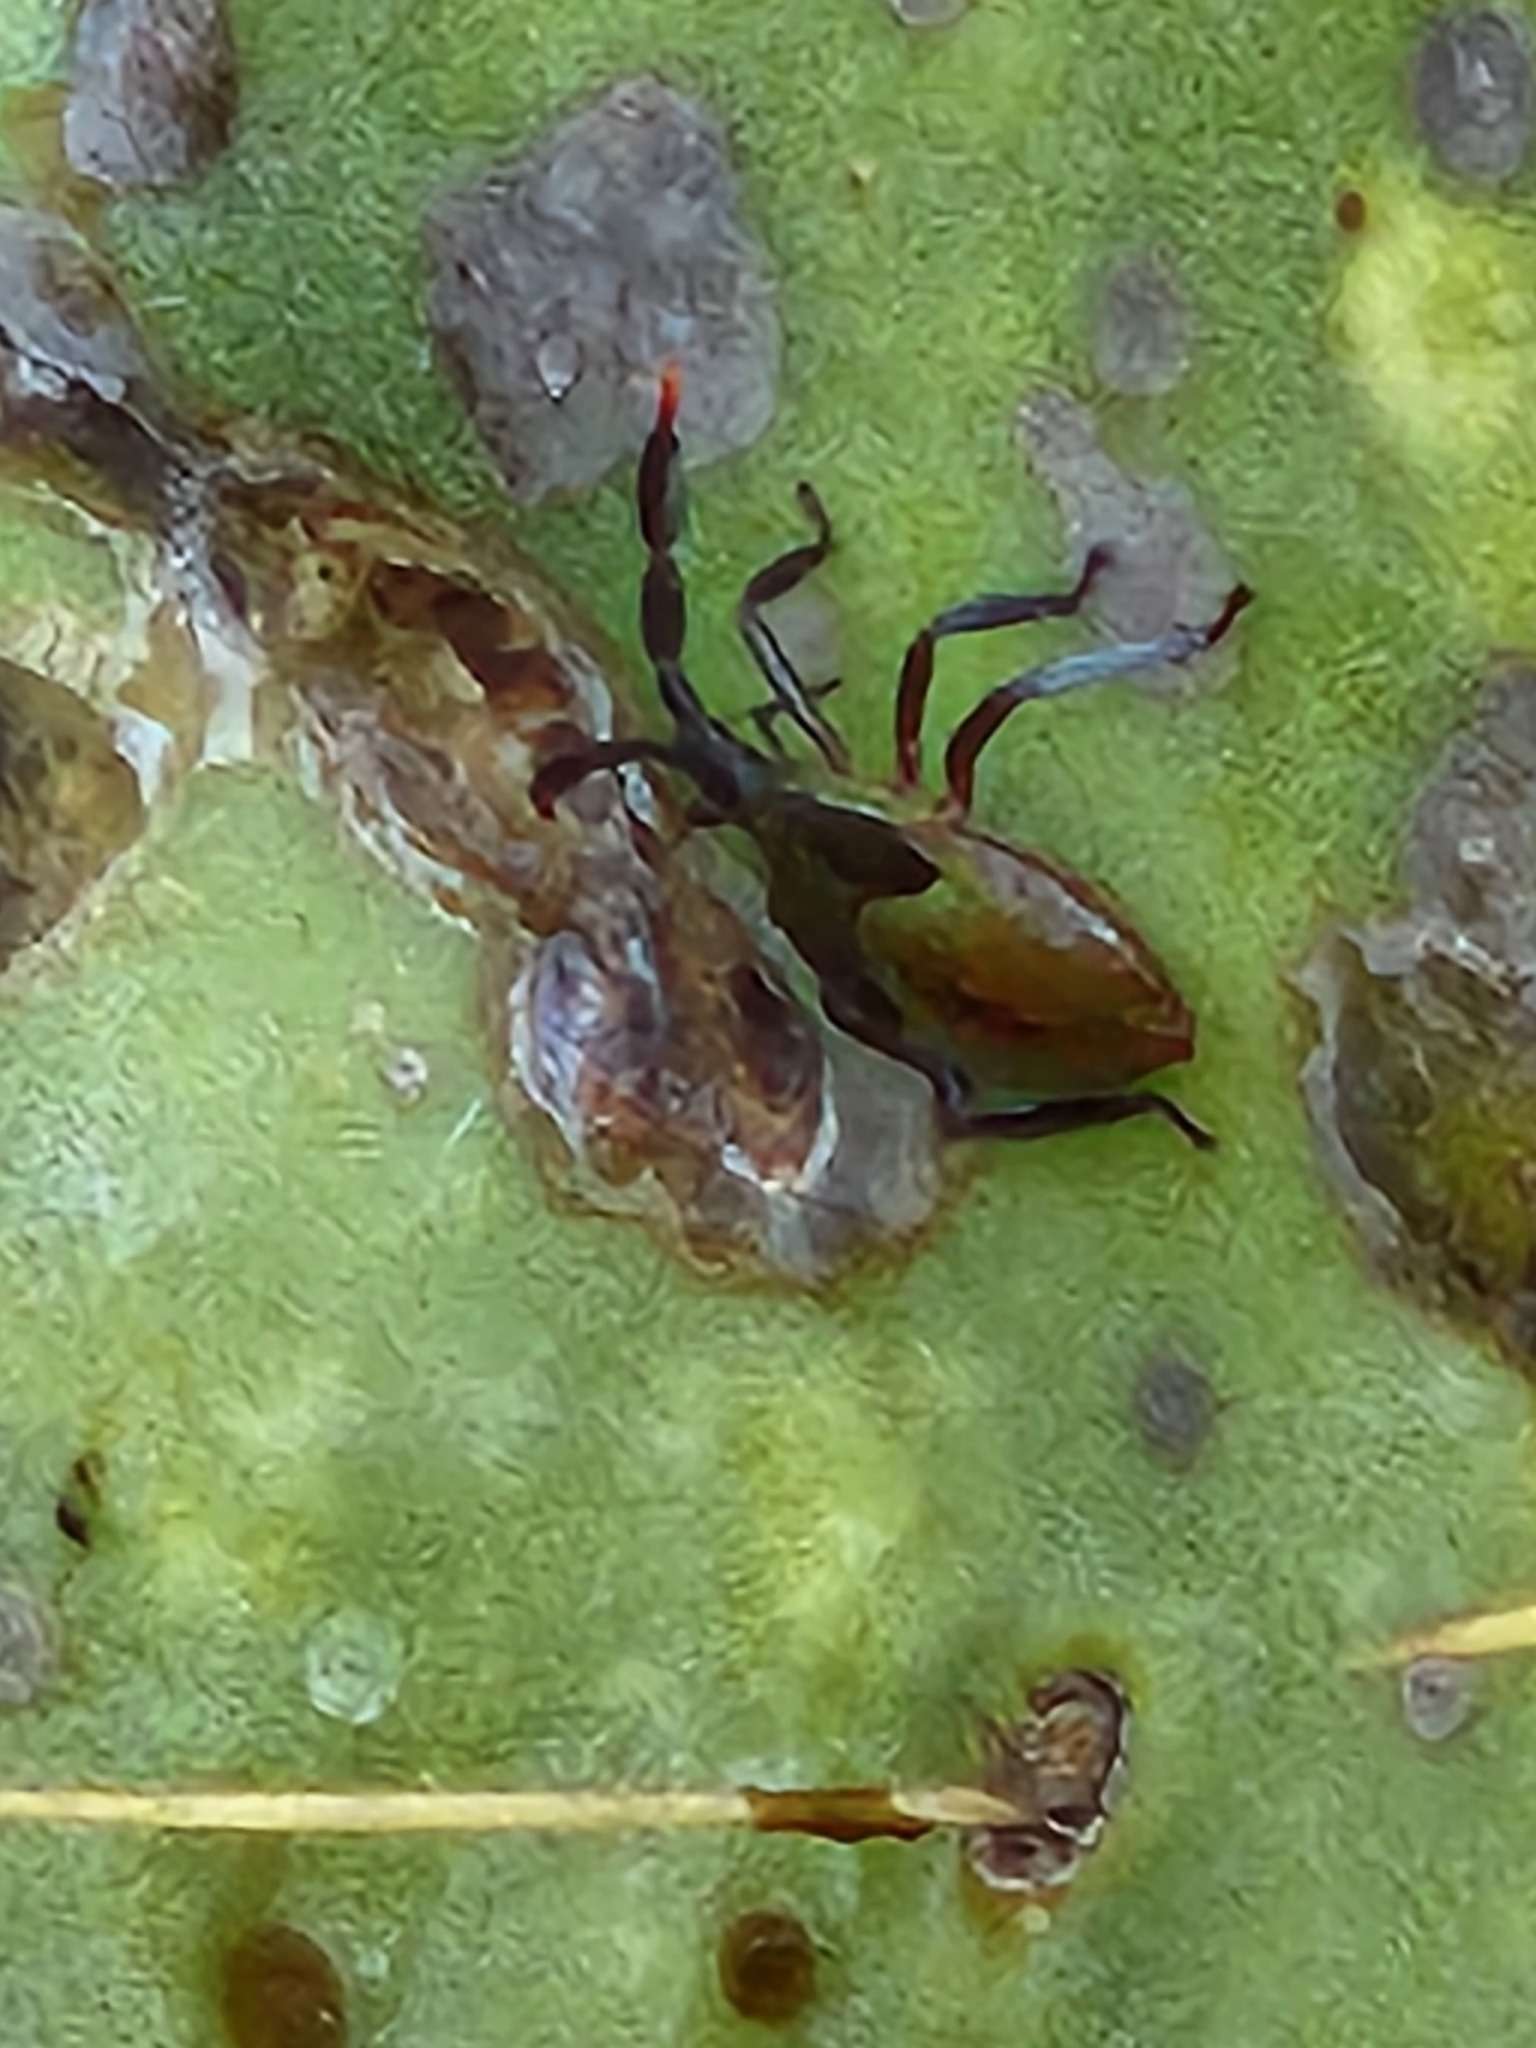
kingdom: Animalia
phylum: Arthropoda
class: Insecta
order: Hemiptera
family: Coreidae
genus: Chelinidea
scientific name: Chelinidea vittiger
